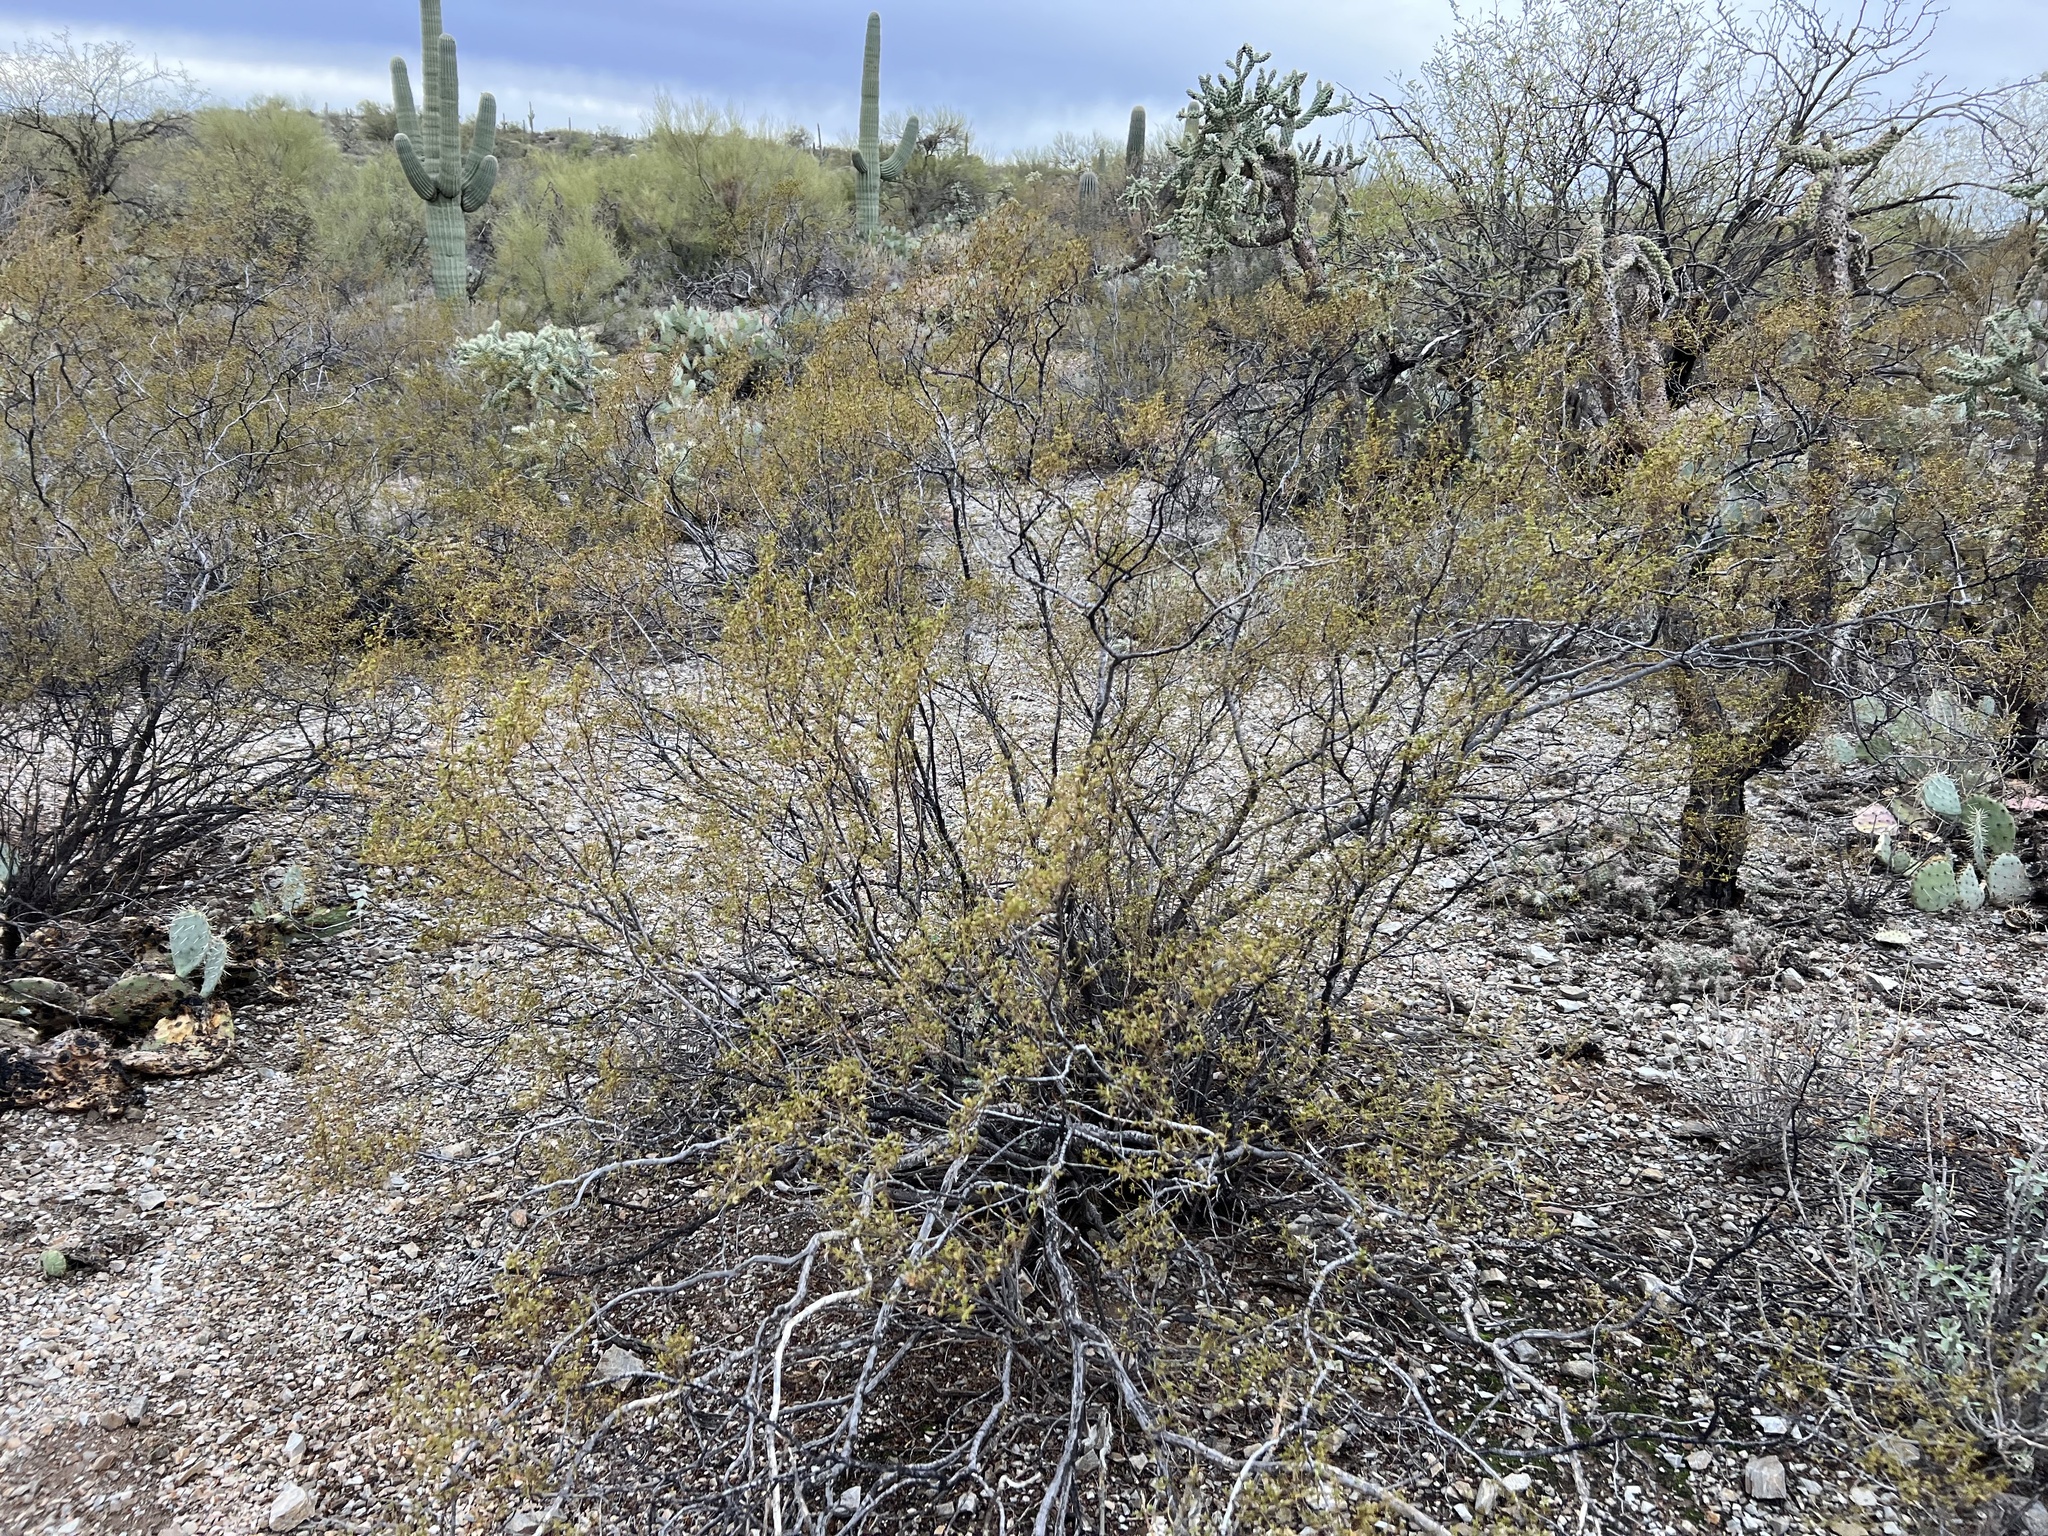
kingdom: Plantae
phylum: Tracheophyta
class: Magnoliopsida
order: Zygophyllales
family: Zygophyllaceae
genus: Larrea
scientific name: Larrea tridentata
